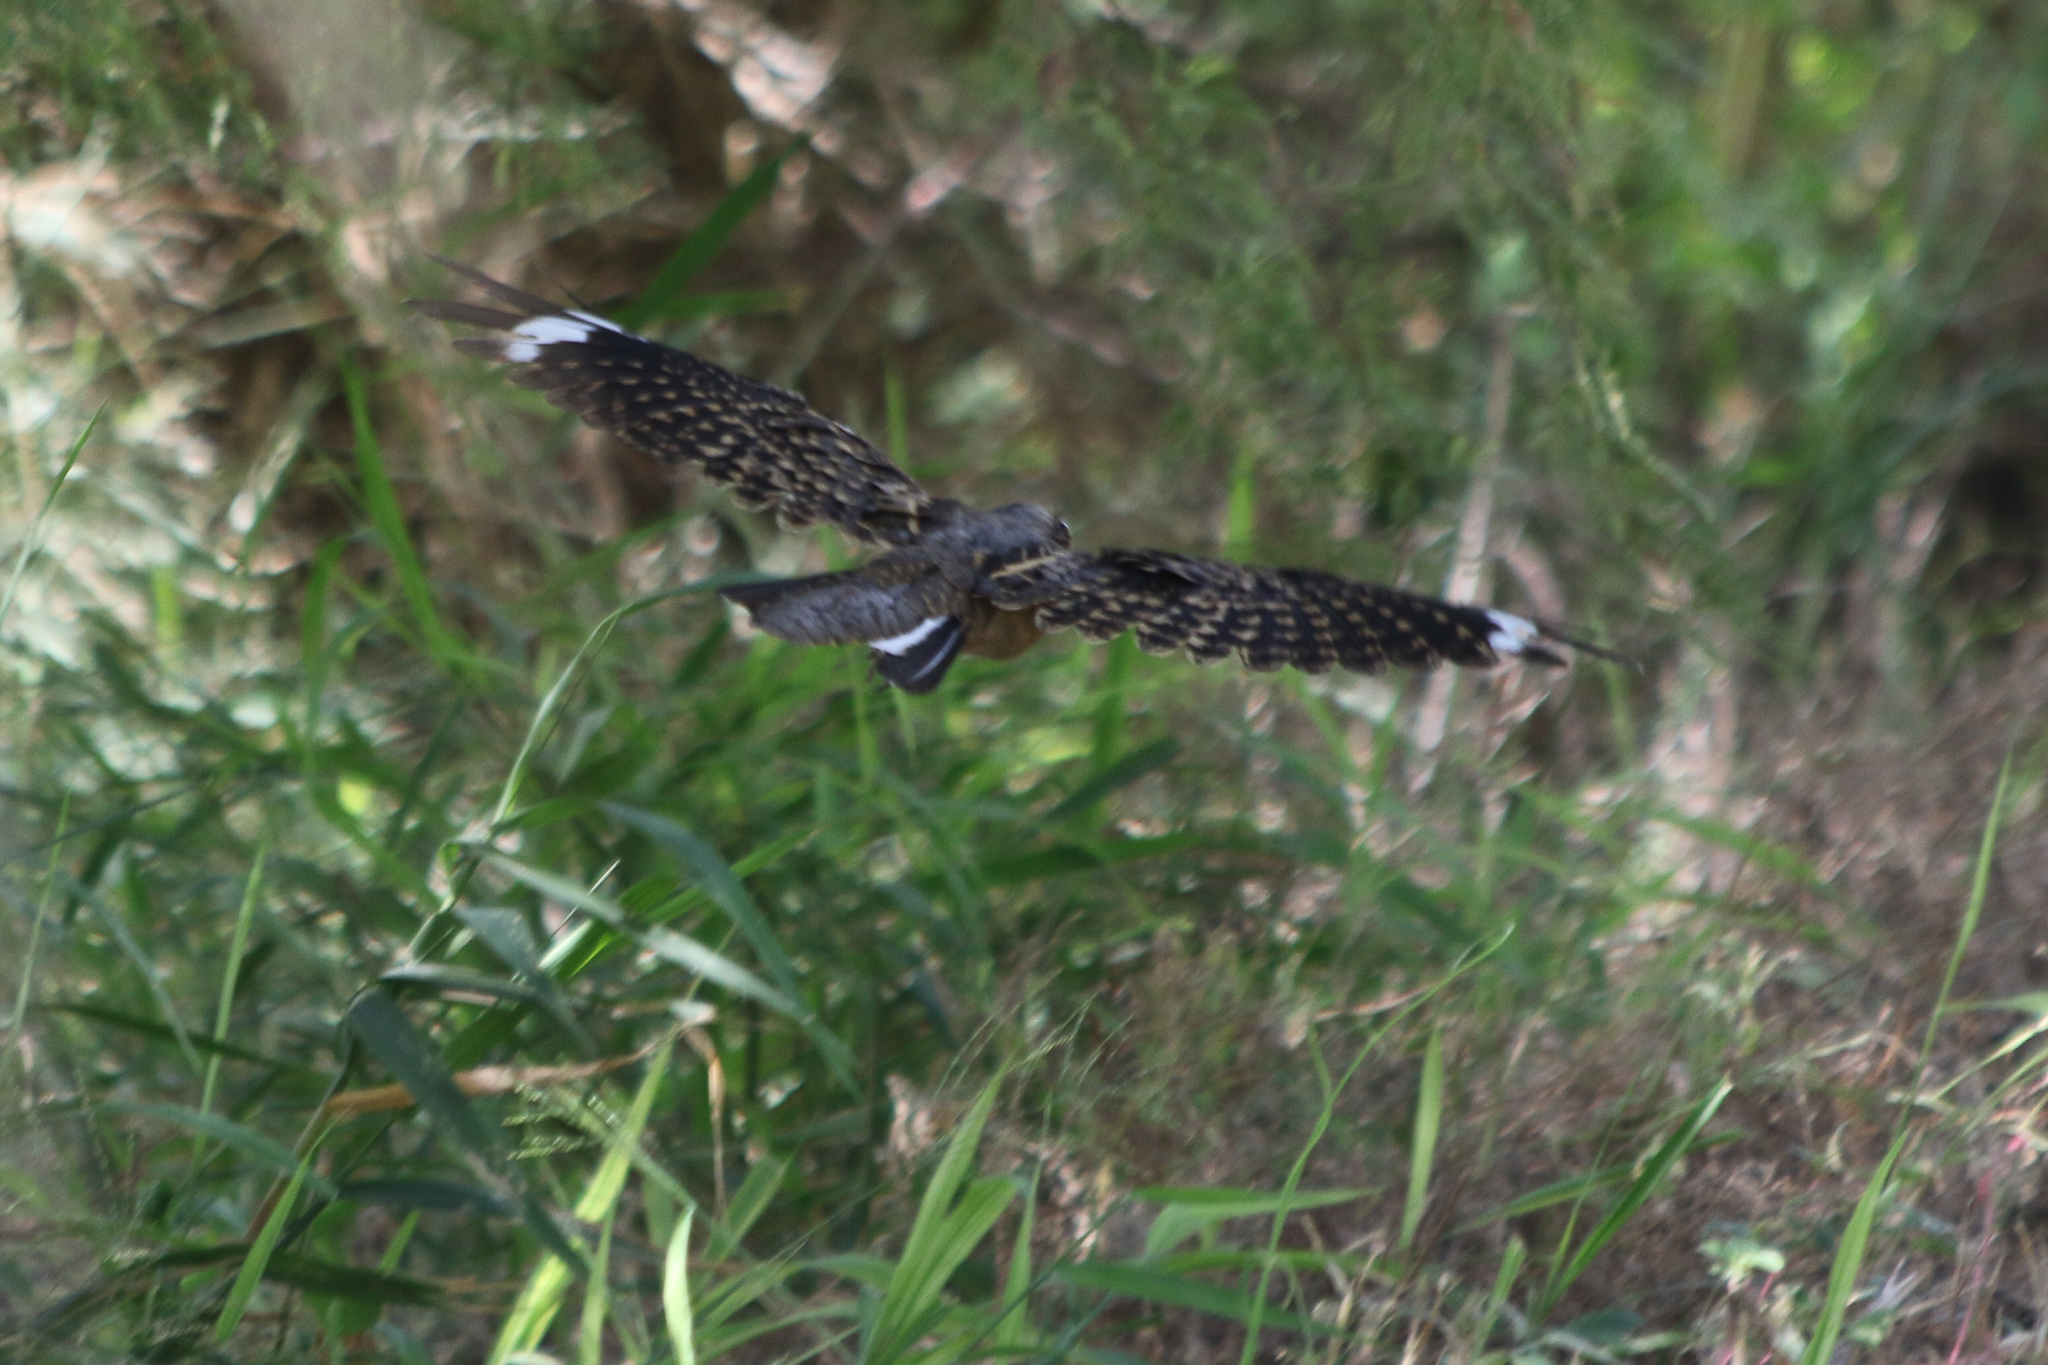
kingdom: Animalia
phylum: Chordata
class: Aves
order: Caprimulgiformes
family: Caprimulgidae
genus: Nyctidromus
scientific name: Nyctidromus albicollis
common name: Pauraque
